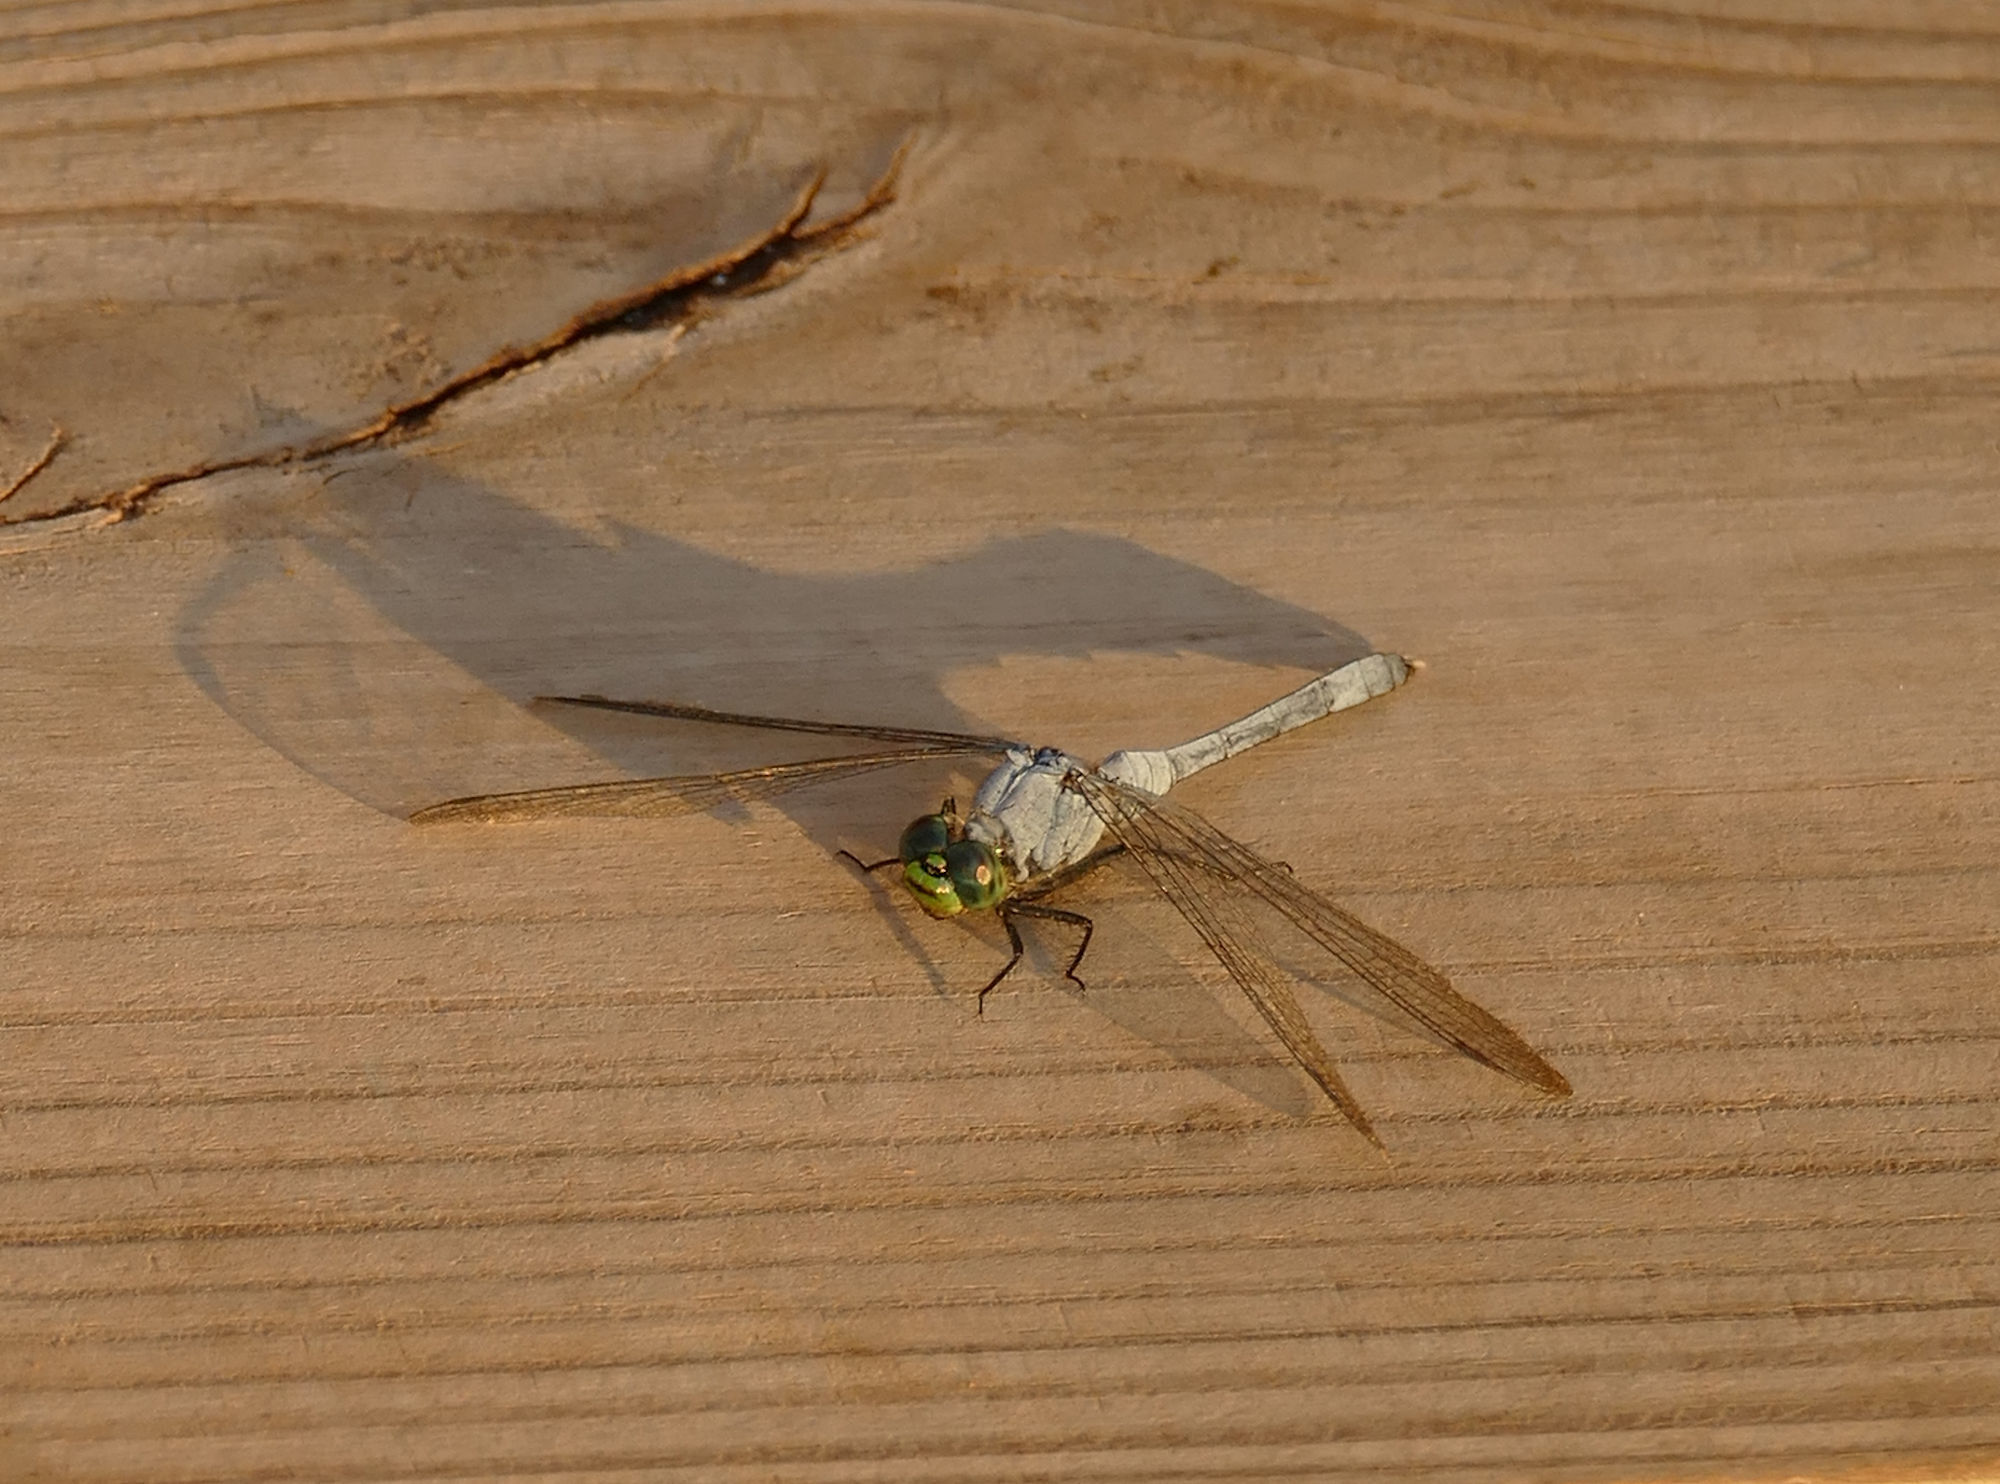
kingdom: Animalia
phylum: Arthropoda
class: Insecta
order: Odonata
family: Libellulidae
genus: Erythemis
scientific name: Erythemis simplicicollis
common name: Eastern pondhawk
